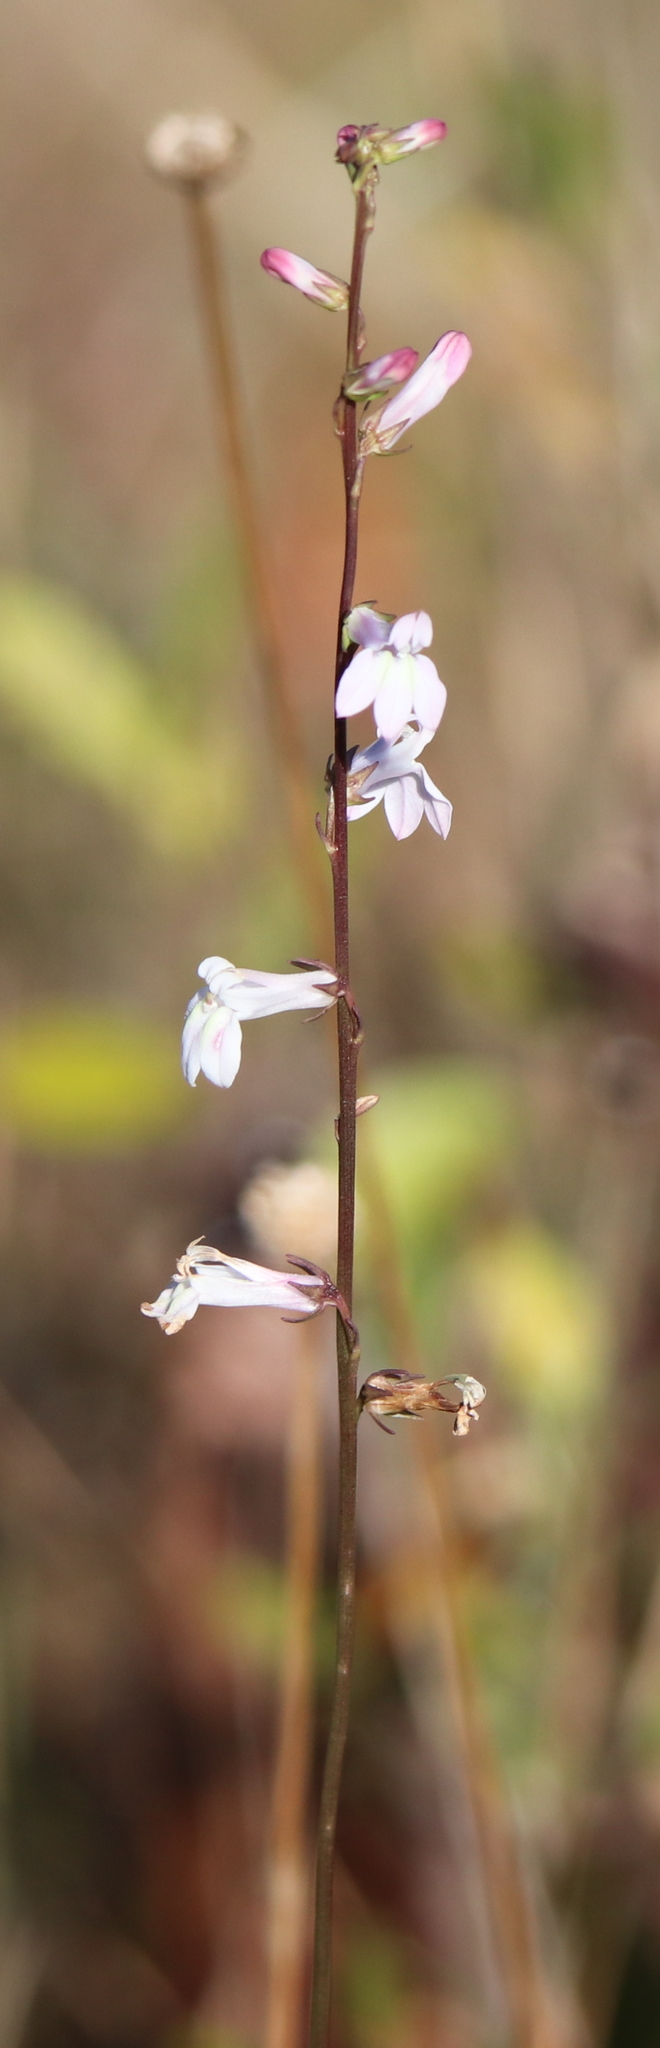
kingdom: Plantae
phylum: Tracheophyta
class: Magnoliopsida
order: Asterales
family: Campanulaceae
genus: Lobelia
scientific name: Lobelia floridana
